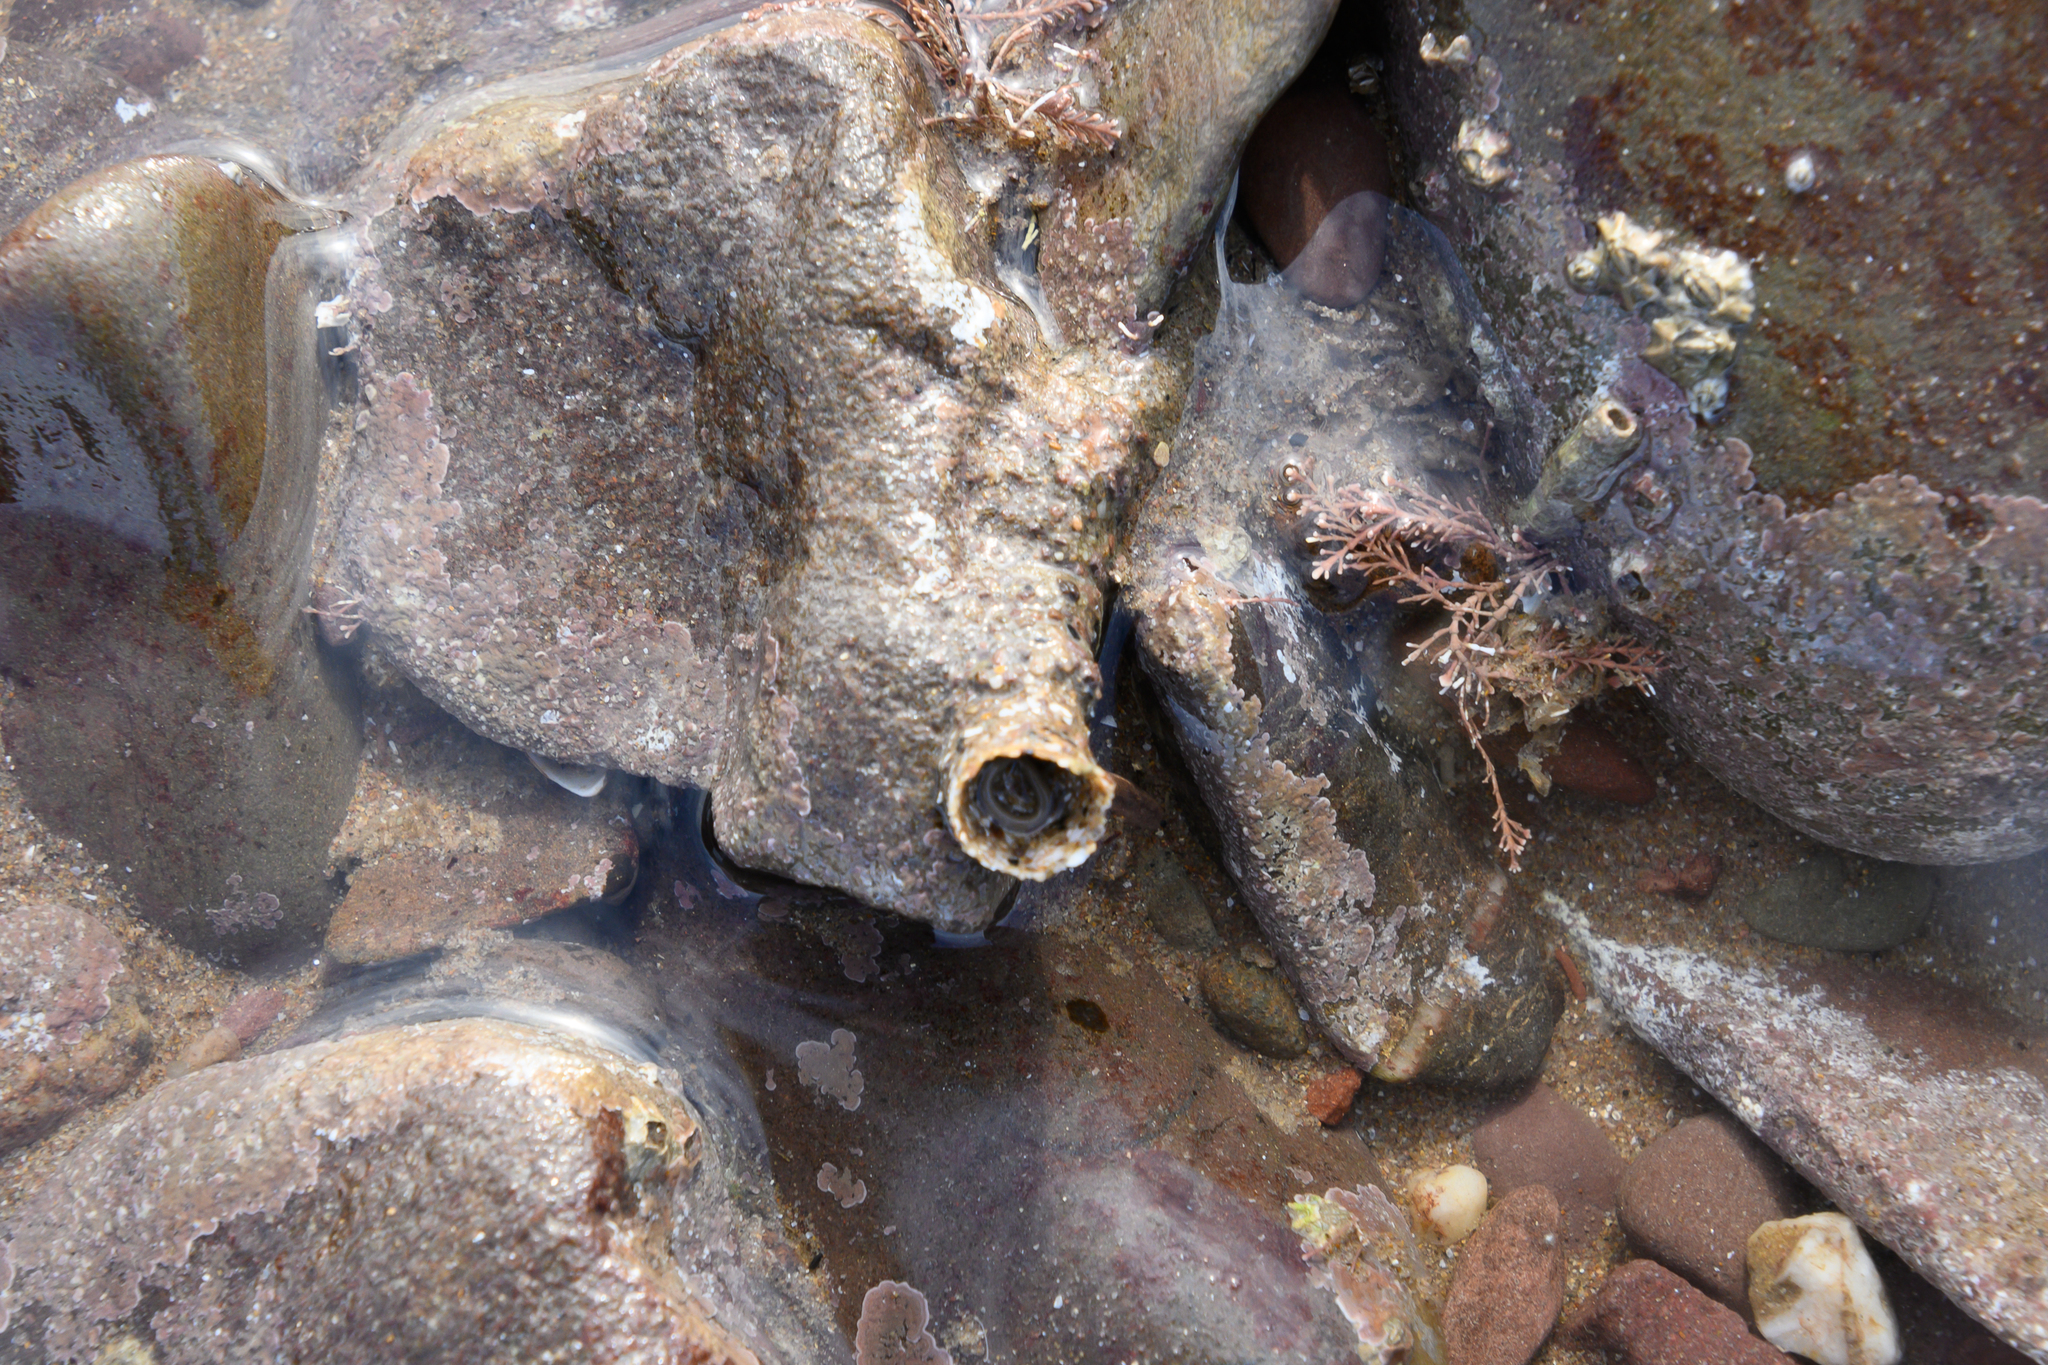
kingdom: Animalia
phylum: Annelida
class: Polychaeta
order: Sabellida
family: Sabellariidae
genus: Sabellaria
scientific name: Sabellaria alveolata
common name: Honeycomb worm
